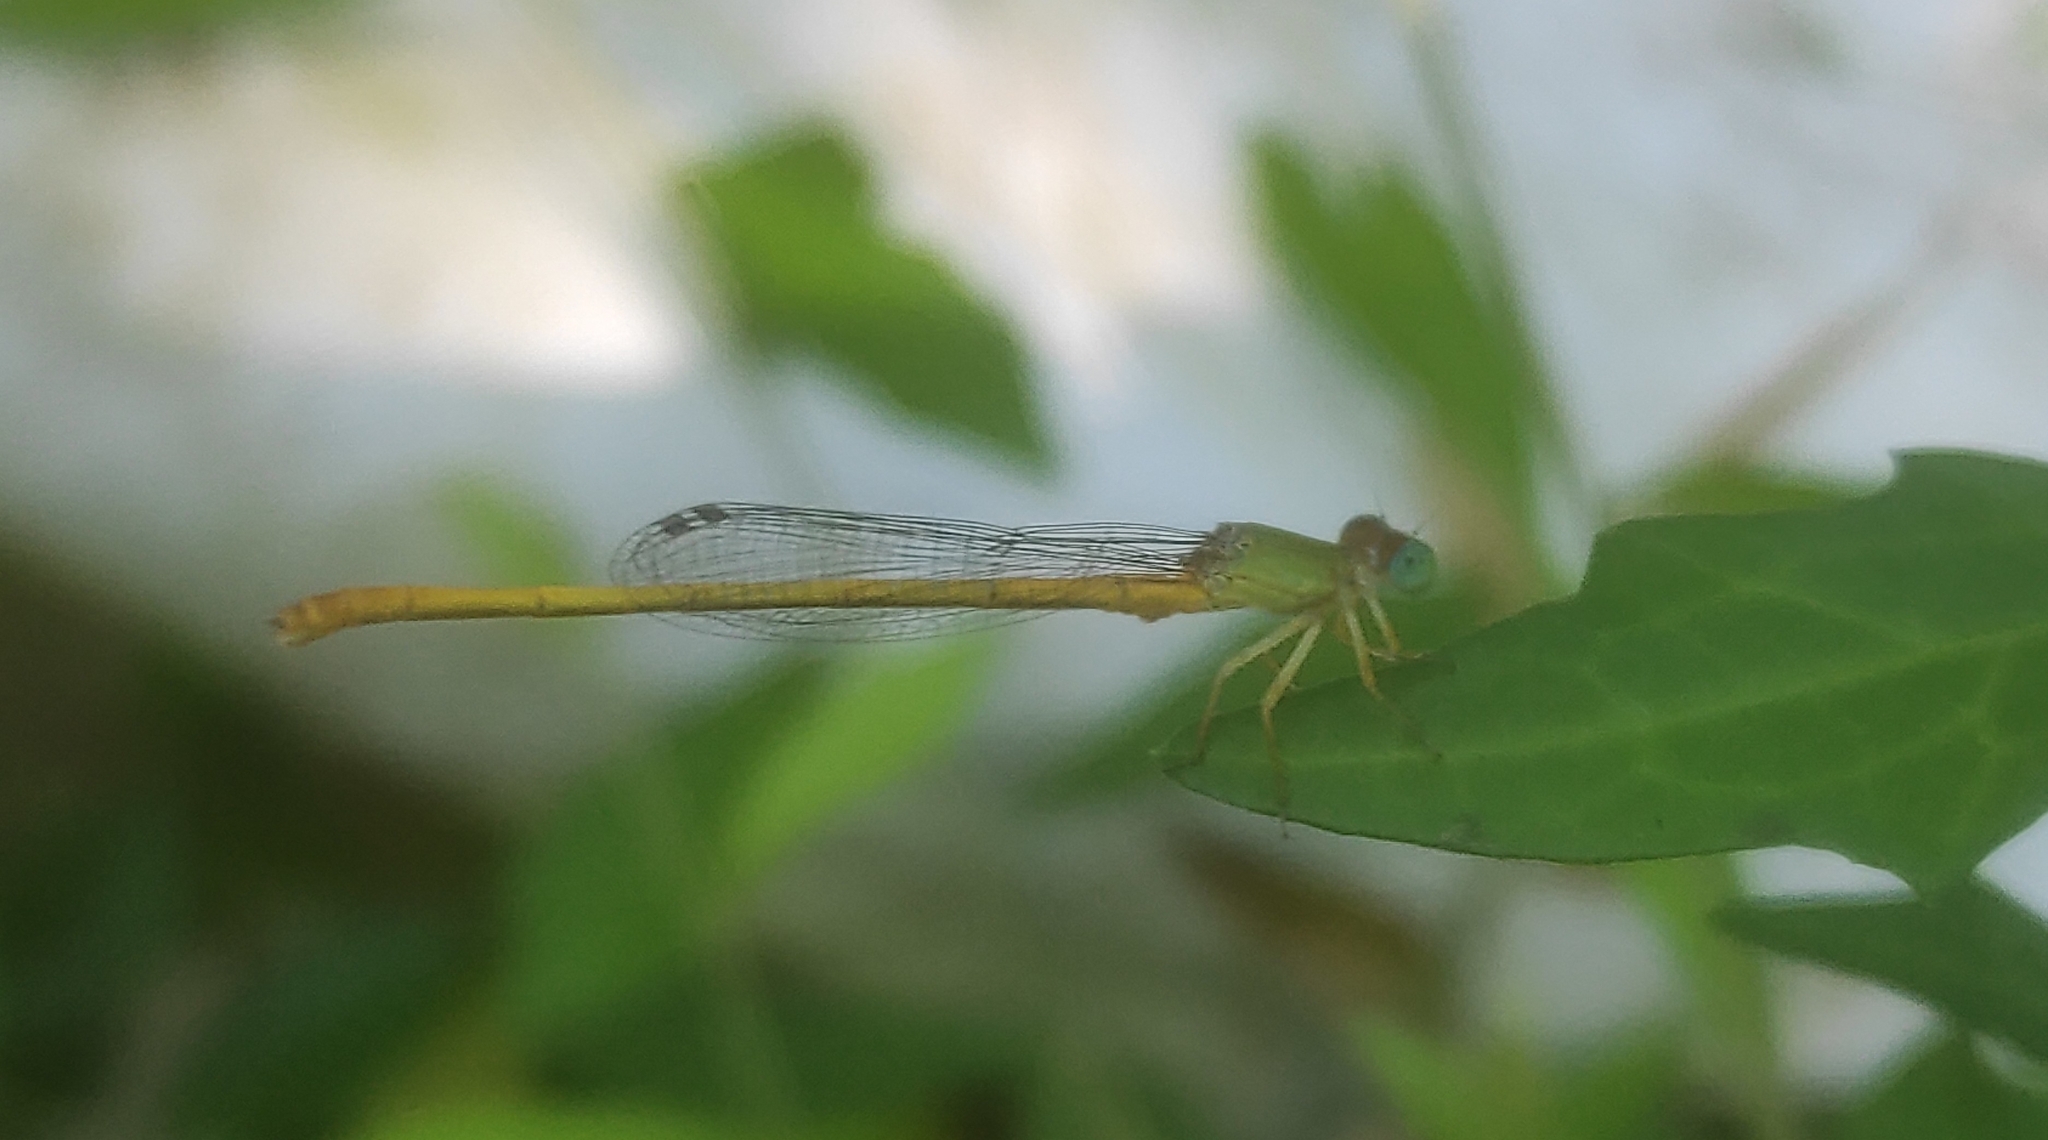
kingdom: Animalia
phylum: Arthropoda
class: Insecta
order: Odonata
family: Coenagrionidae
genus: Ceriagrion
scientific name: Ceriagrion coromandelianum
